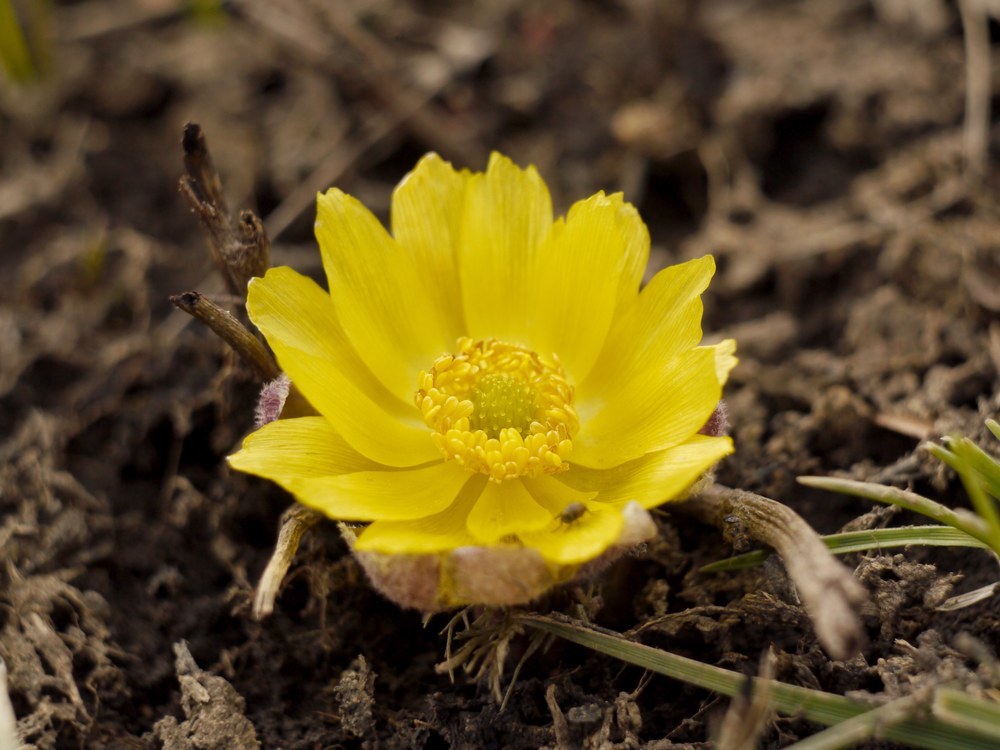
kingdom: Plantae
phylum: Tracheophyta
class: Magnoliopsida
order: Ranunculales
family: Ranunculaceae
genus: Adonis
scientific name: Adonis vernalis
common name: Yellow pheasants-eye
